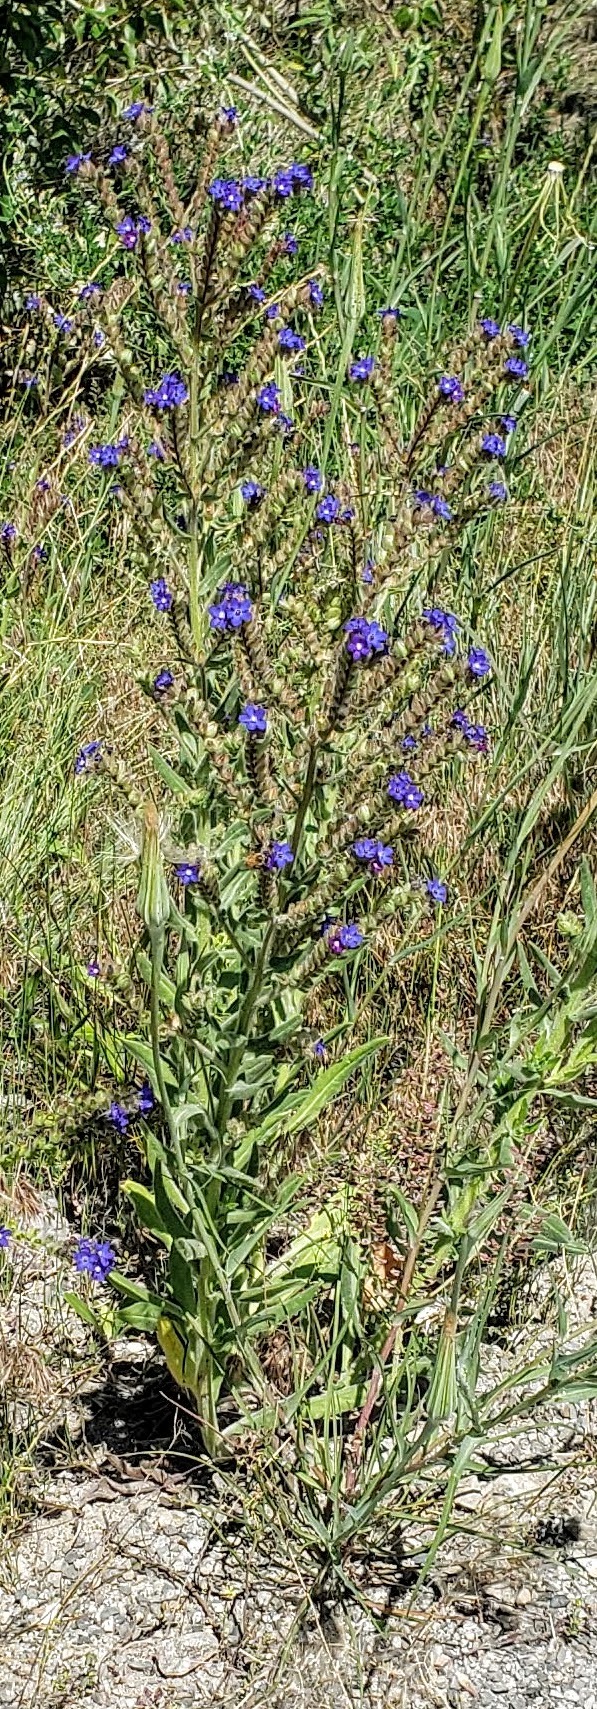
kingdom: Plantae
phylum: Tracheophyta
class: Magnoliopsida
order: Boraginales
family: Boraginaceae
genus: Anchusa
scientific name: Anchusa officinalis
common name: Alkanet
